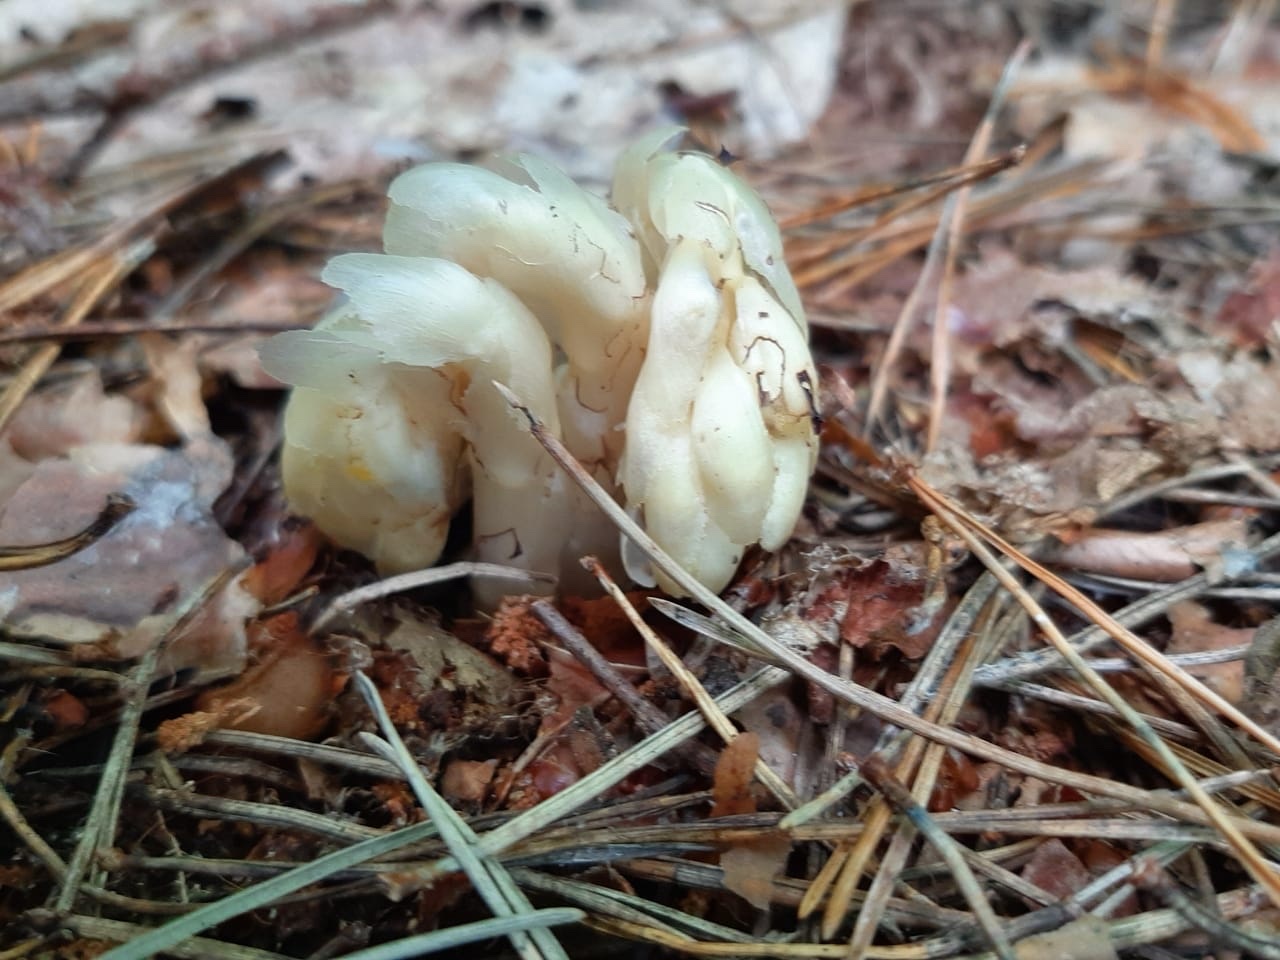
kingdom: Plantae
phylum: Tracheophyta
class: Magnoliopsida
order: Ericales
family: Ericaceae
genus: Hypopitys
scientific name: Hypopitys monotropa
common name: Yellow bird's-nest
